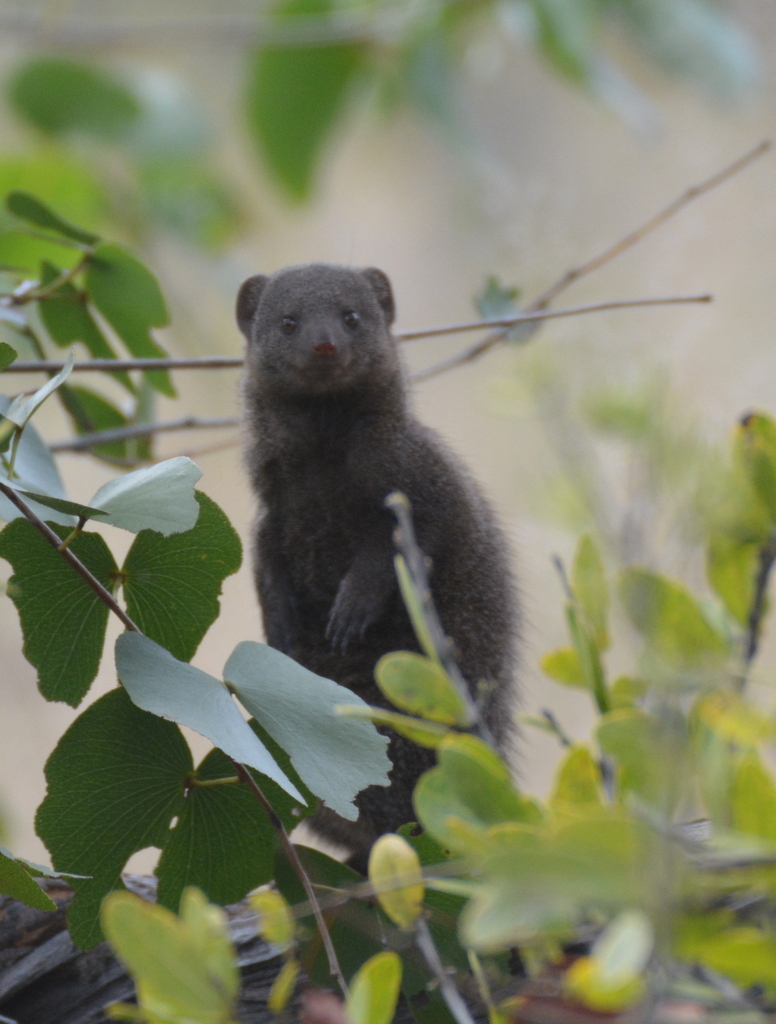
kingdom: Animalia
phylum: Chordata
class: Mammalia
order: Carnivora
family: Herpestidae
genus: Helogale
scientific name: Helogale parvula
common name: Common dwarf mongoose
